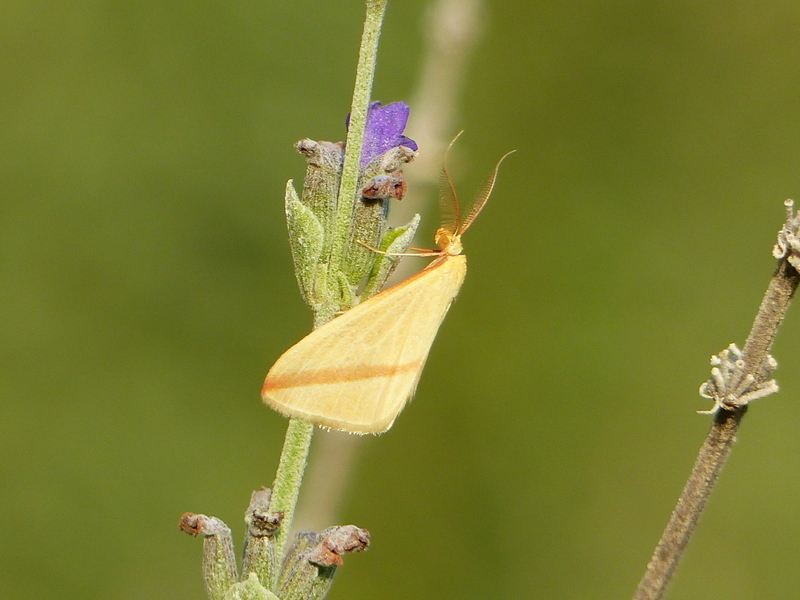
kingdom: Animalia
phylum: Arthropoda
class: Insecta
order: Lepidoptera
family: Geometridae
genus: Rhodometra
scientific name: Rhodometra sacraria
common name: Vestal
